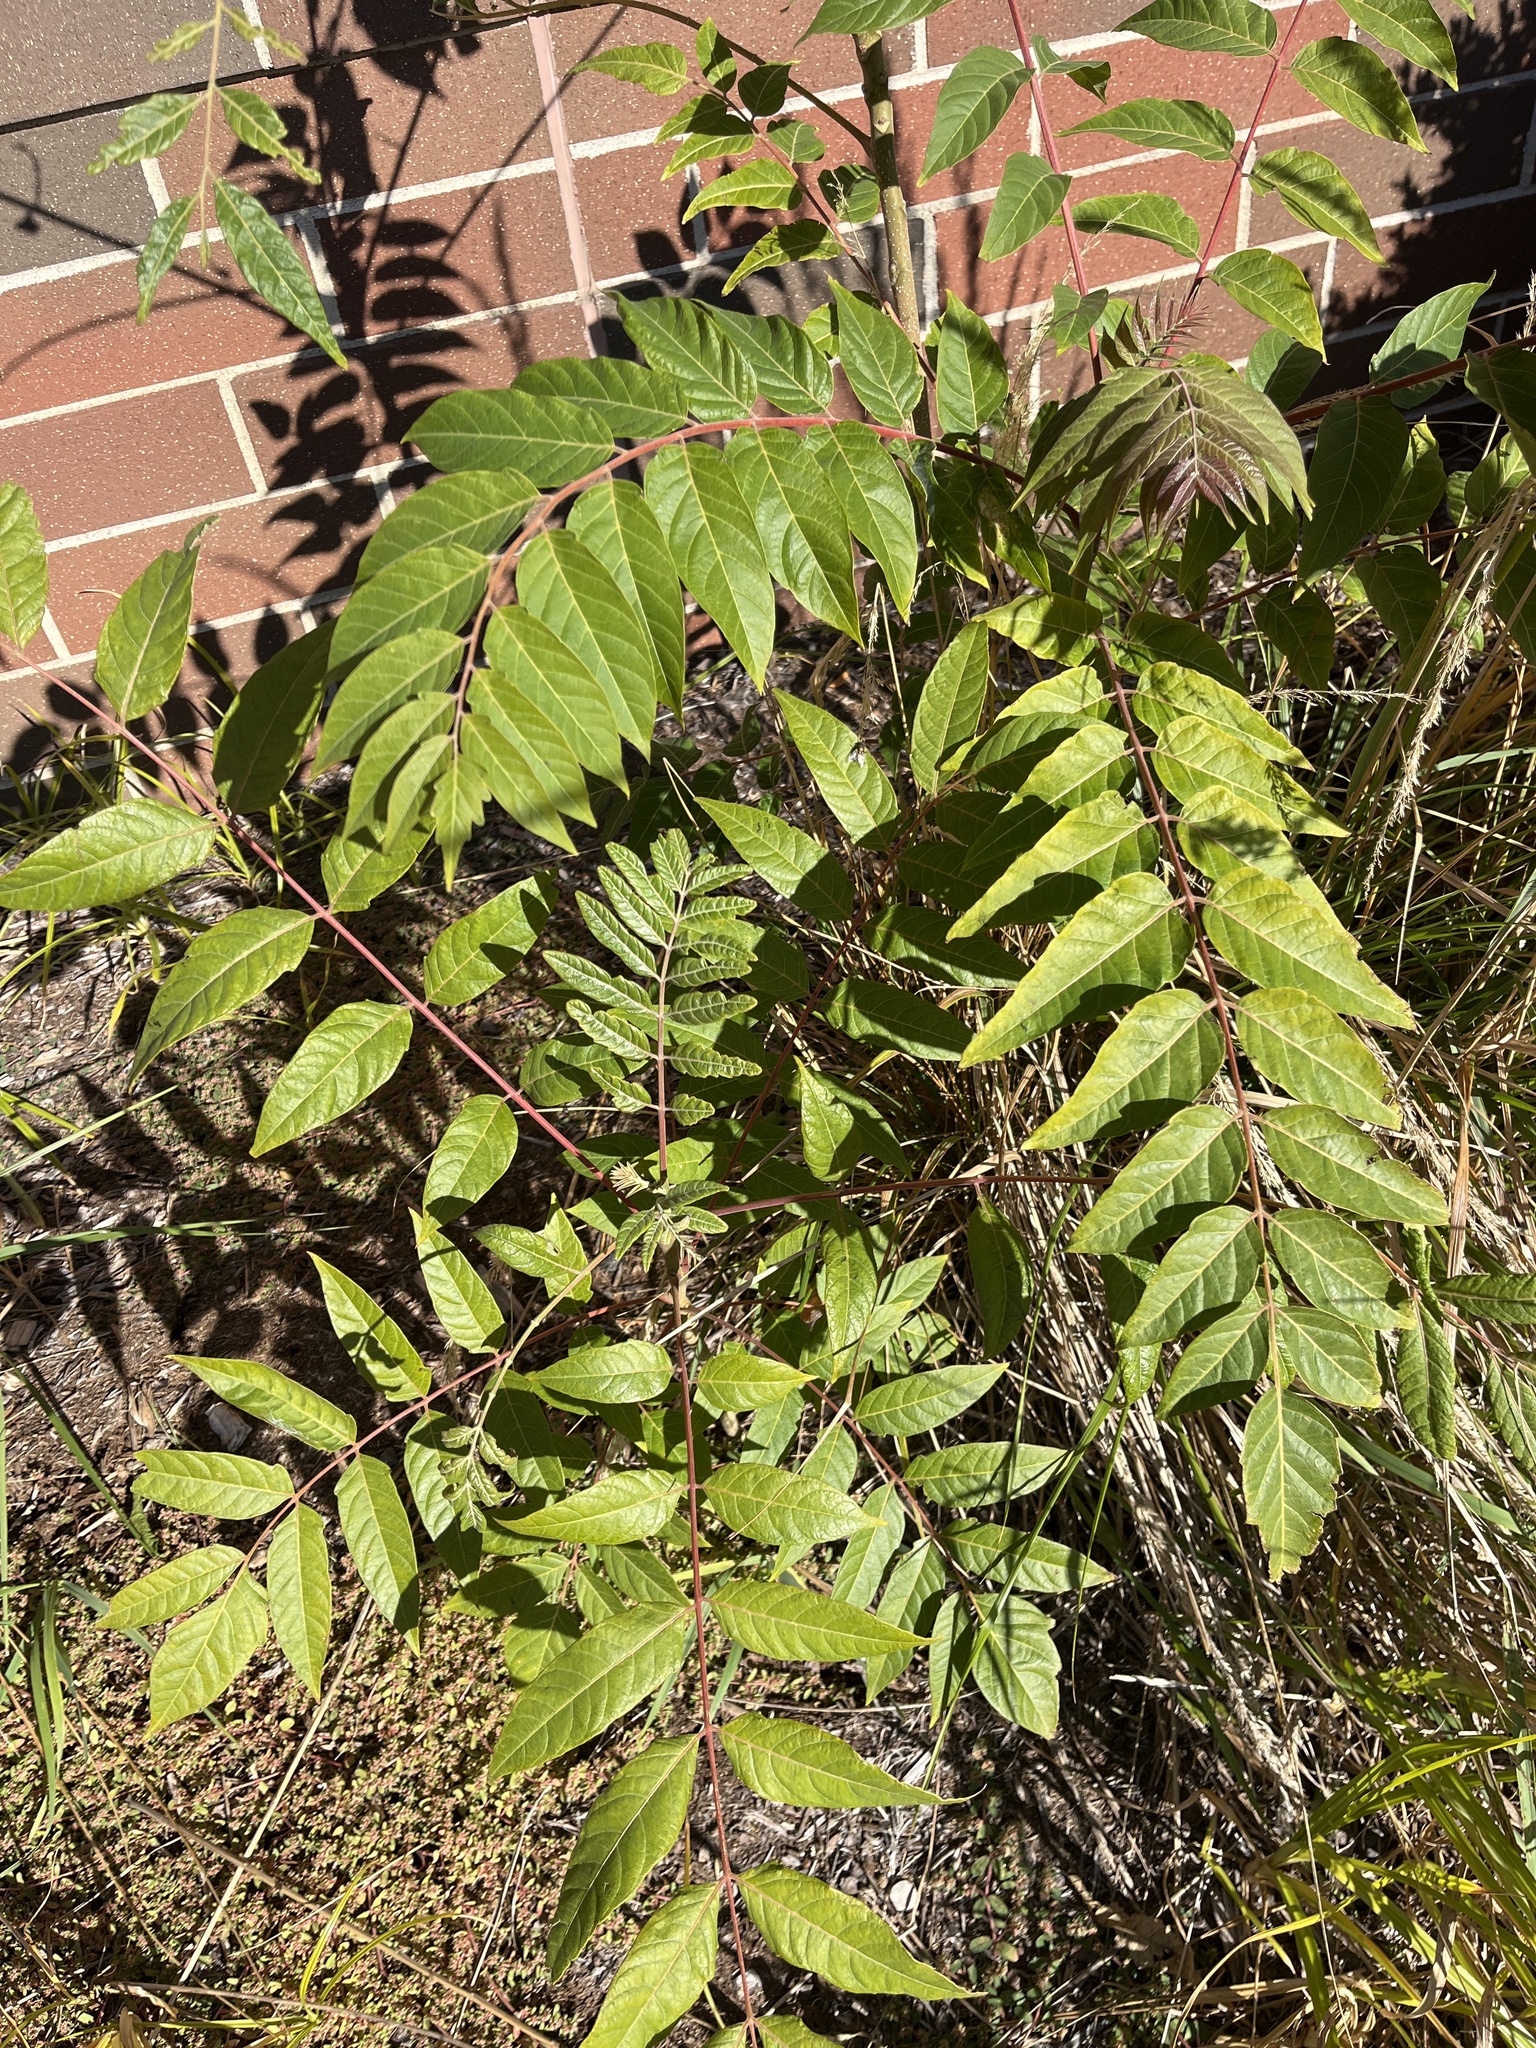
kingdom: Plantae
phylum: Tracheophyta
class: Magnoliopsida
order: Sapindales
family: Simaroubaceae
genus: Ailanthus
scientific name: Ailanthus altissima
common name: Tree-of-heaven
